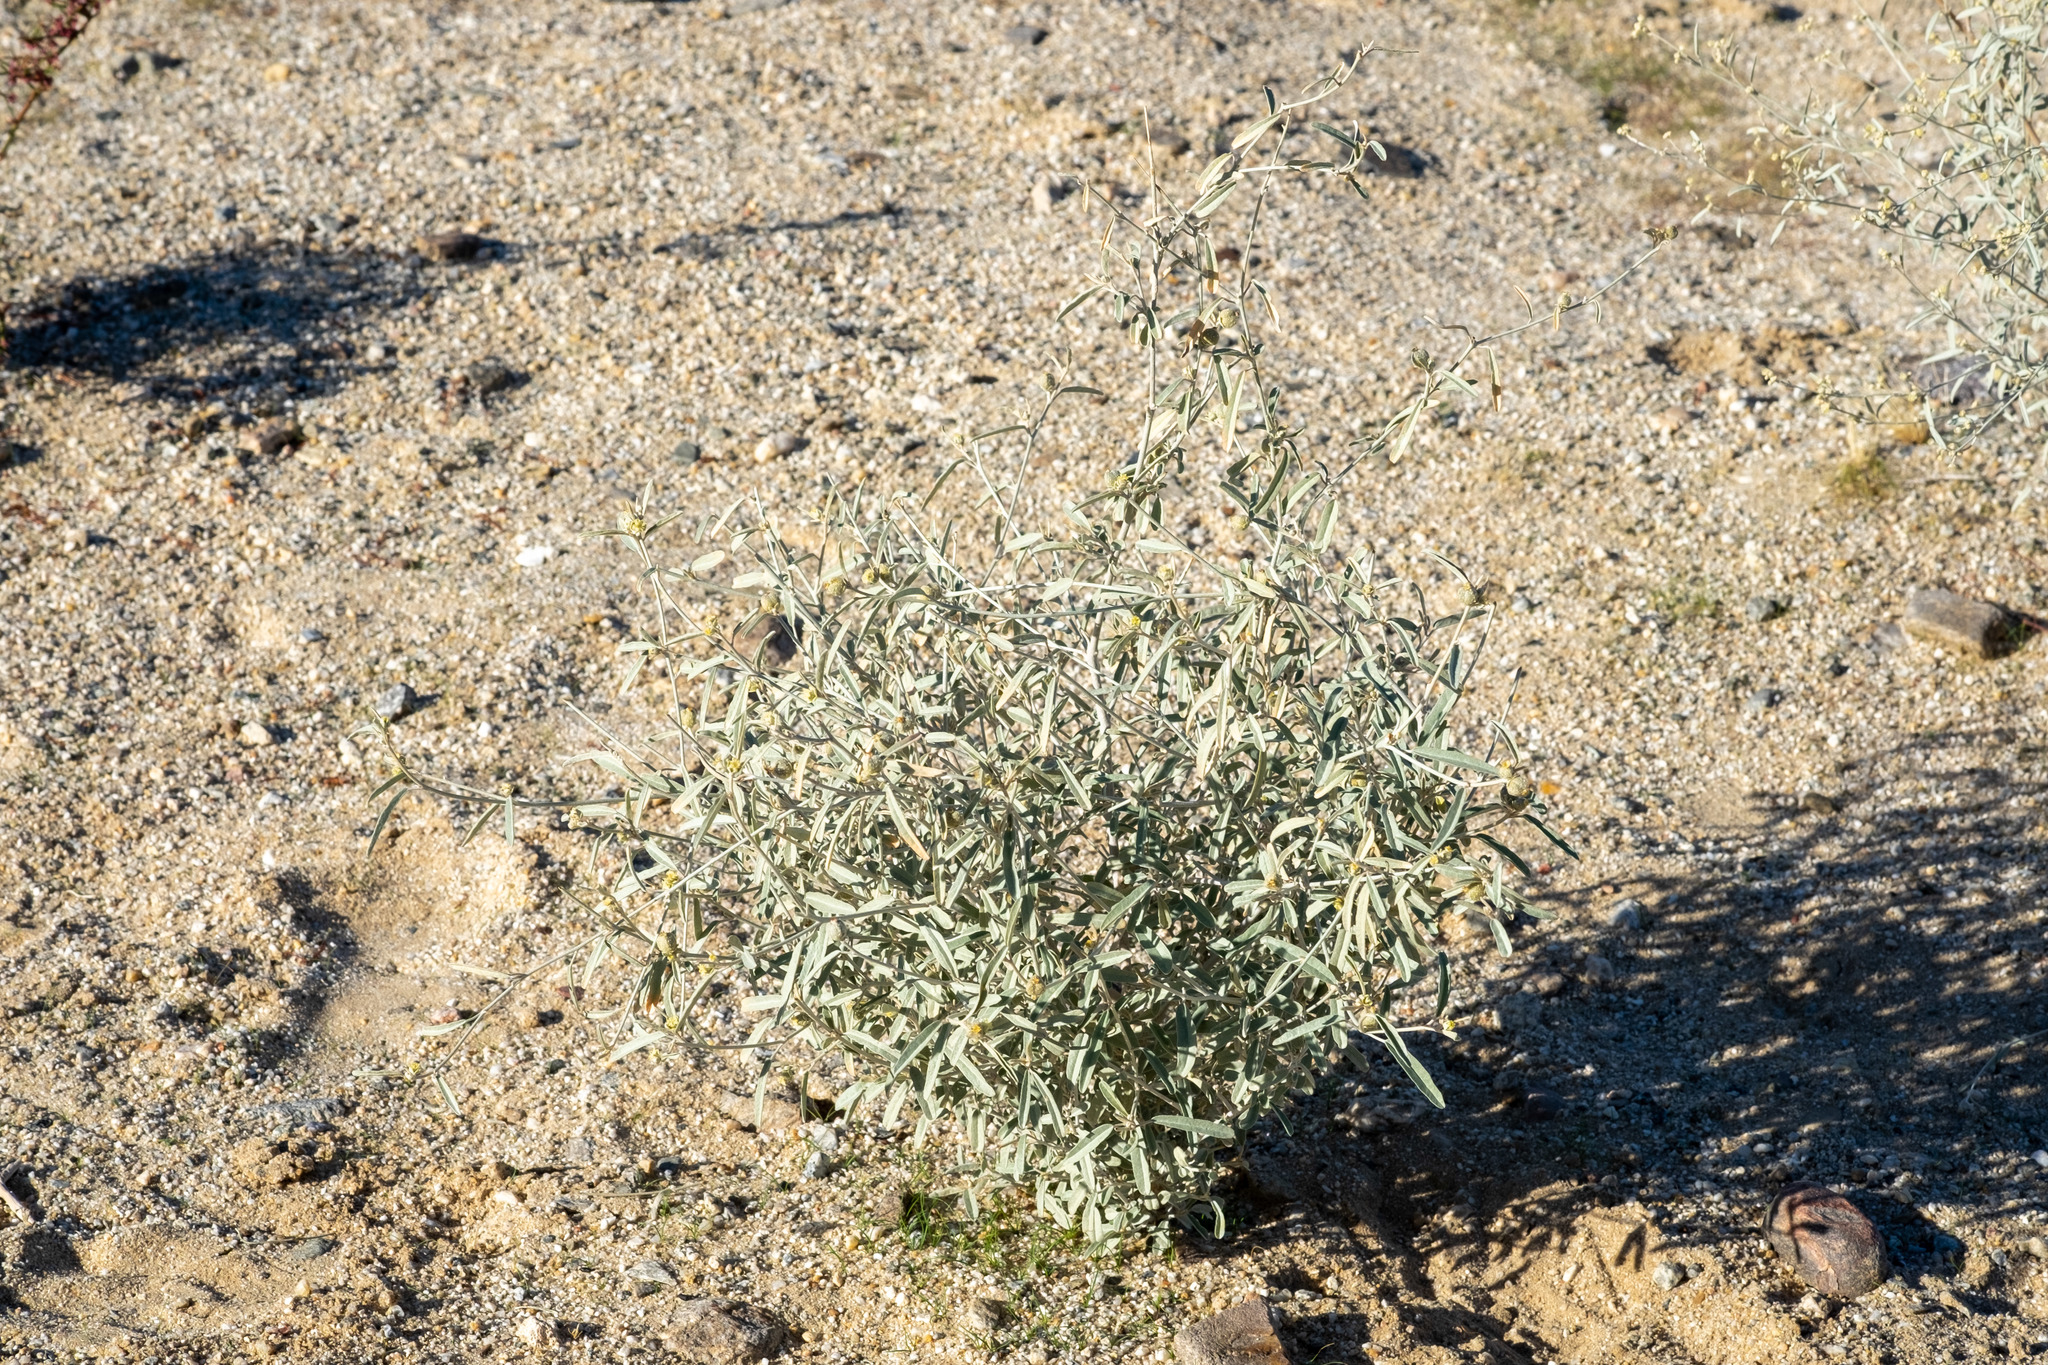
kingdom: Plantae
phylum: Tracheophyta
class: Magnoliopsida
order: Malpighiales
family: Euphorbiaceae
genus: Croton
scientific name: Croton californicus
